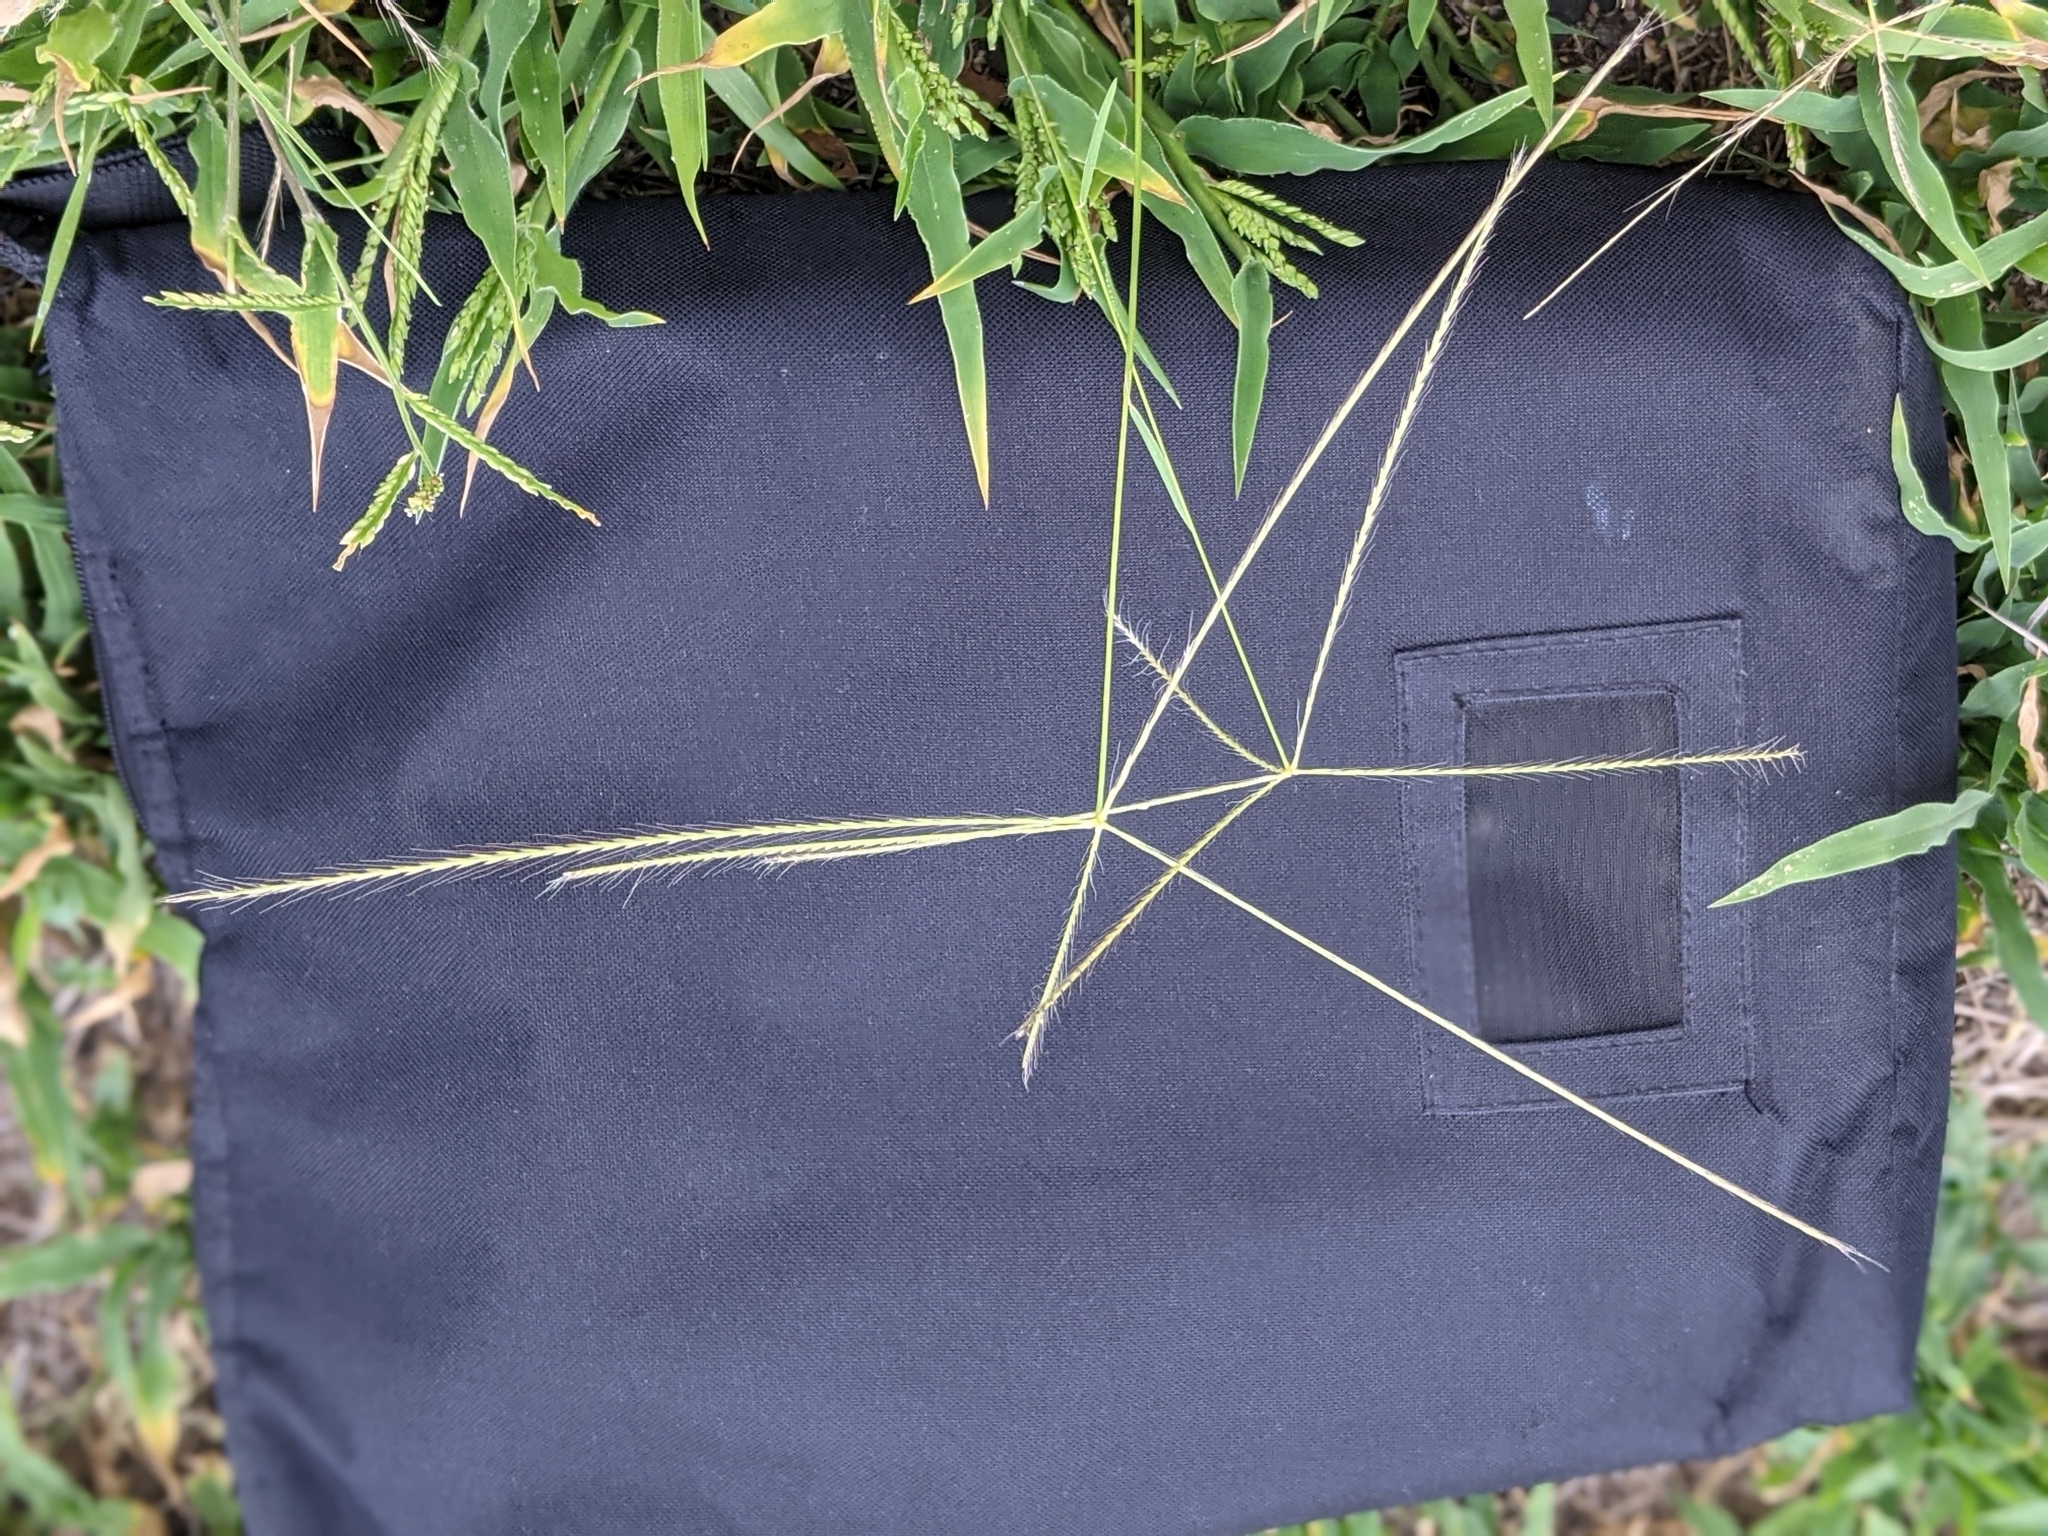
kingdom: Plantae
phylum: Tracheophyta
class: Liliopsida
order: Poales
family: Poaceae
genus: Chloris
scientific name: Chloris truncata
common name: Windmill-grass
